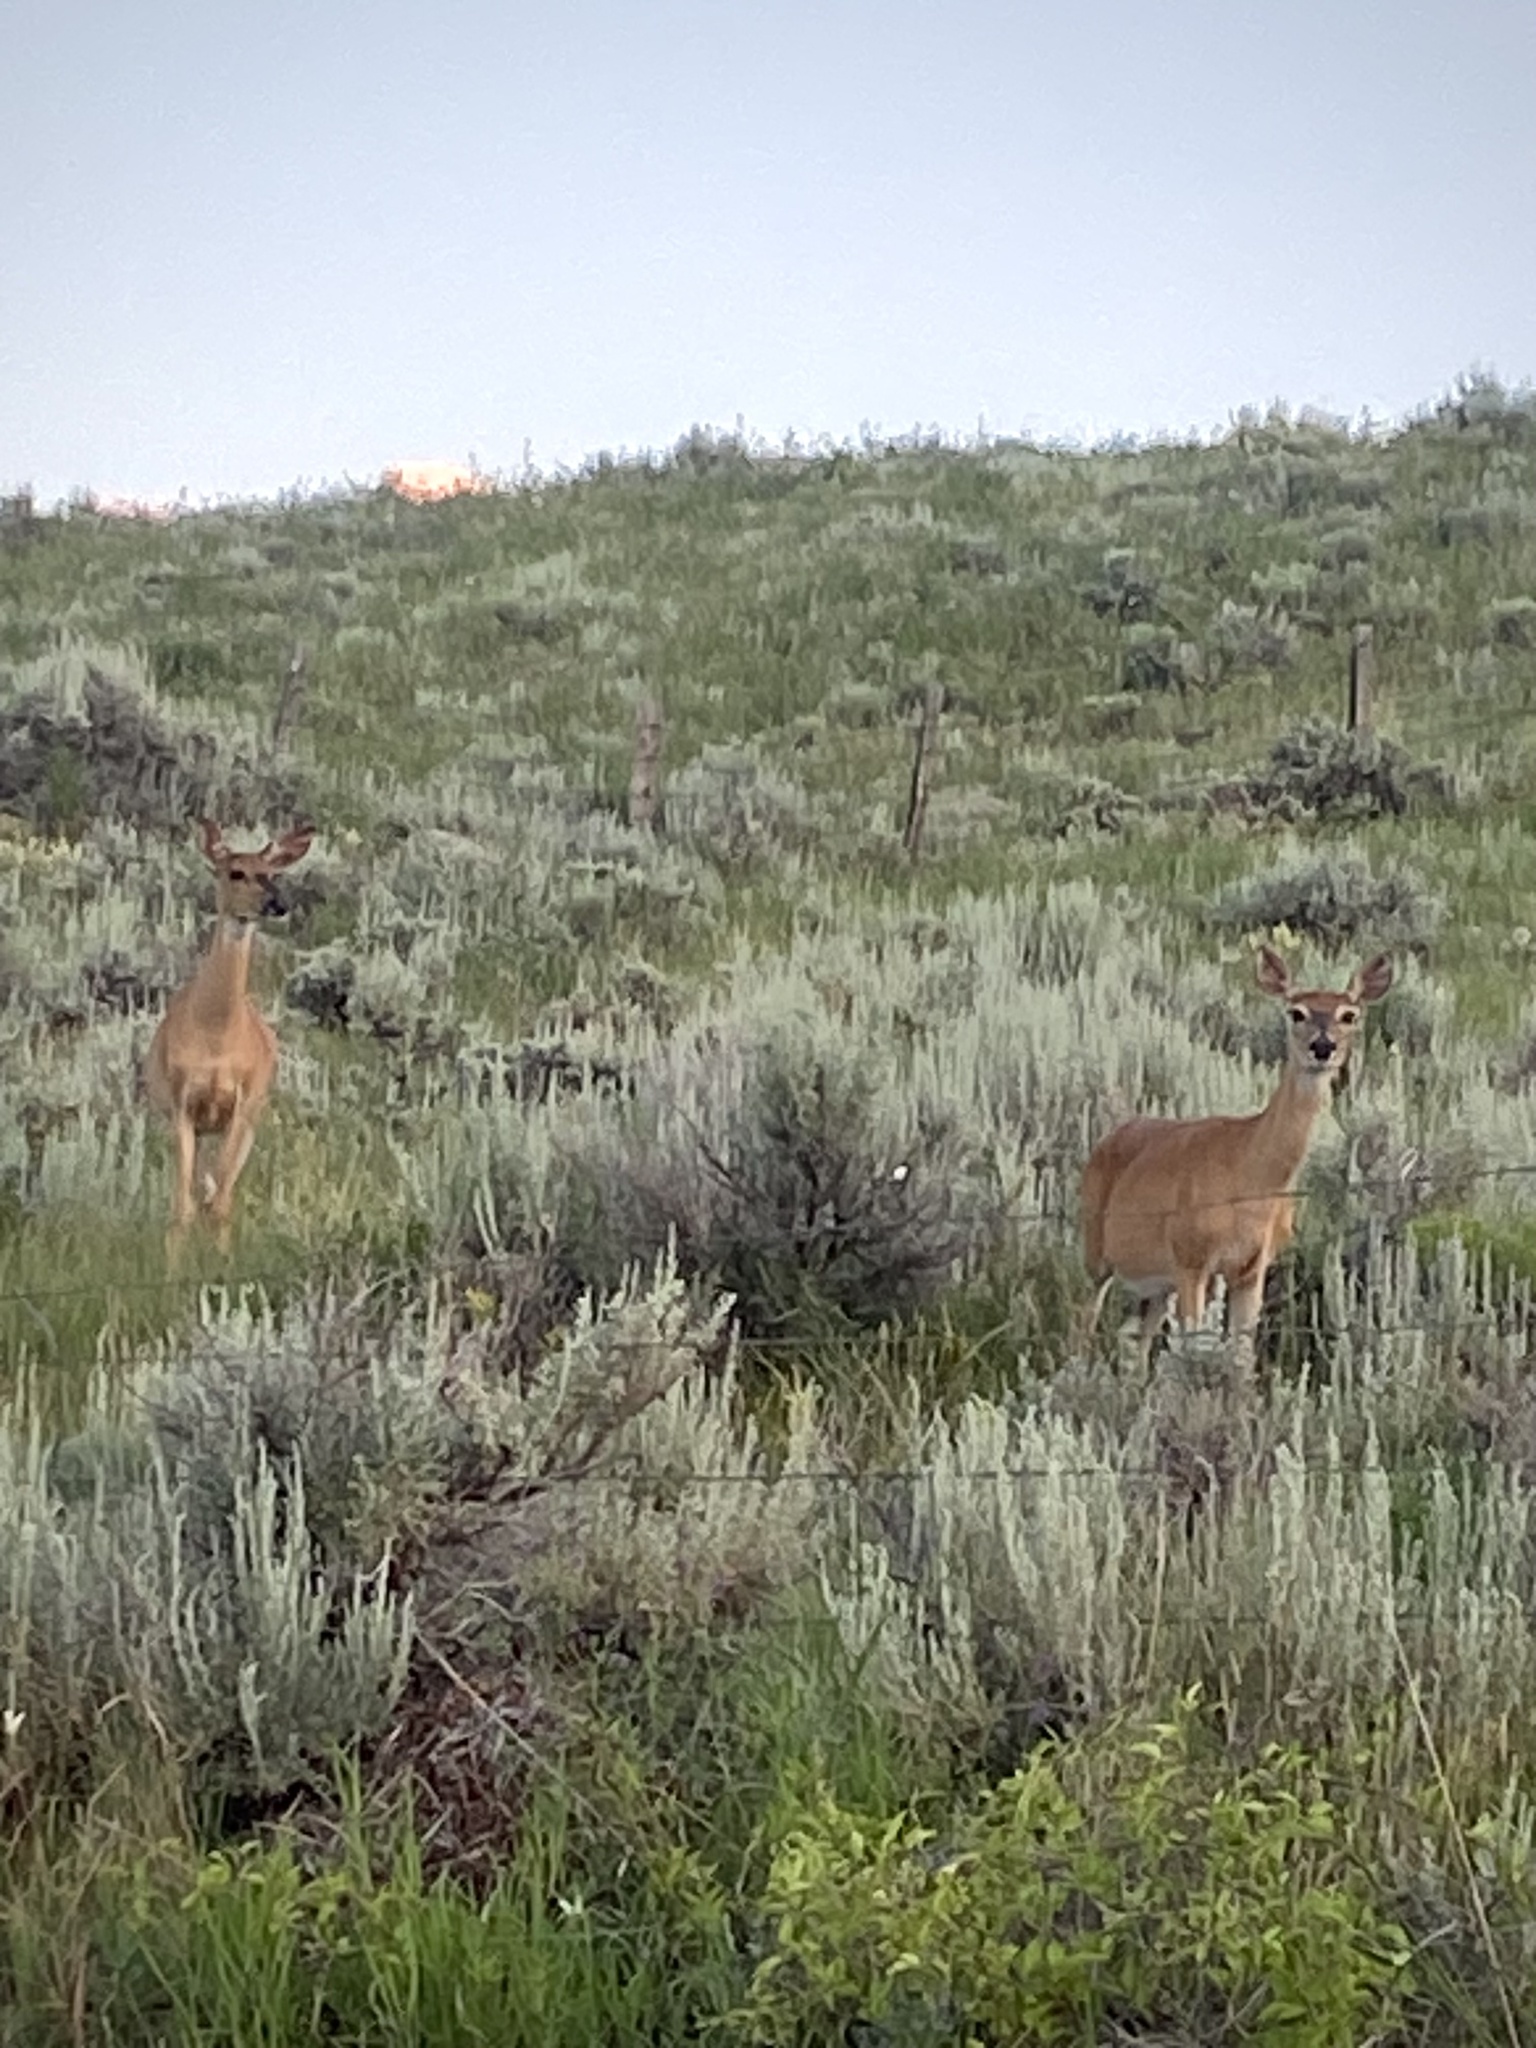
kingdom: Animalia
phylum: Chordata
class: Mammalia
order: Artiodactyla
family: Cervidae
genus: Odocoileus
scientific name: Odocoileus hemionus
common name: Mule deer
